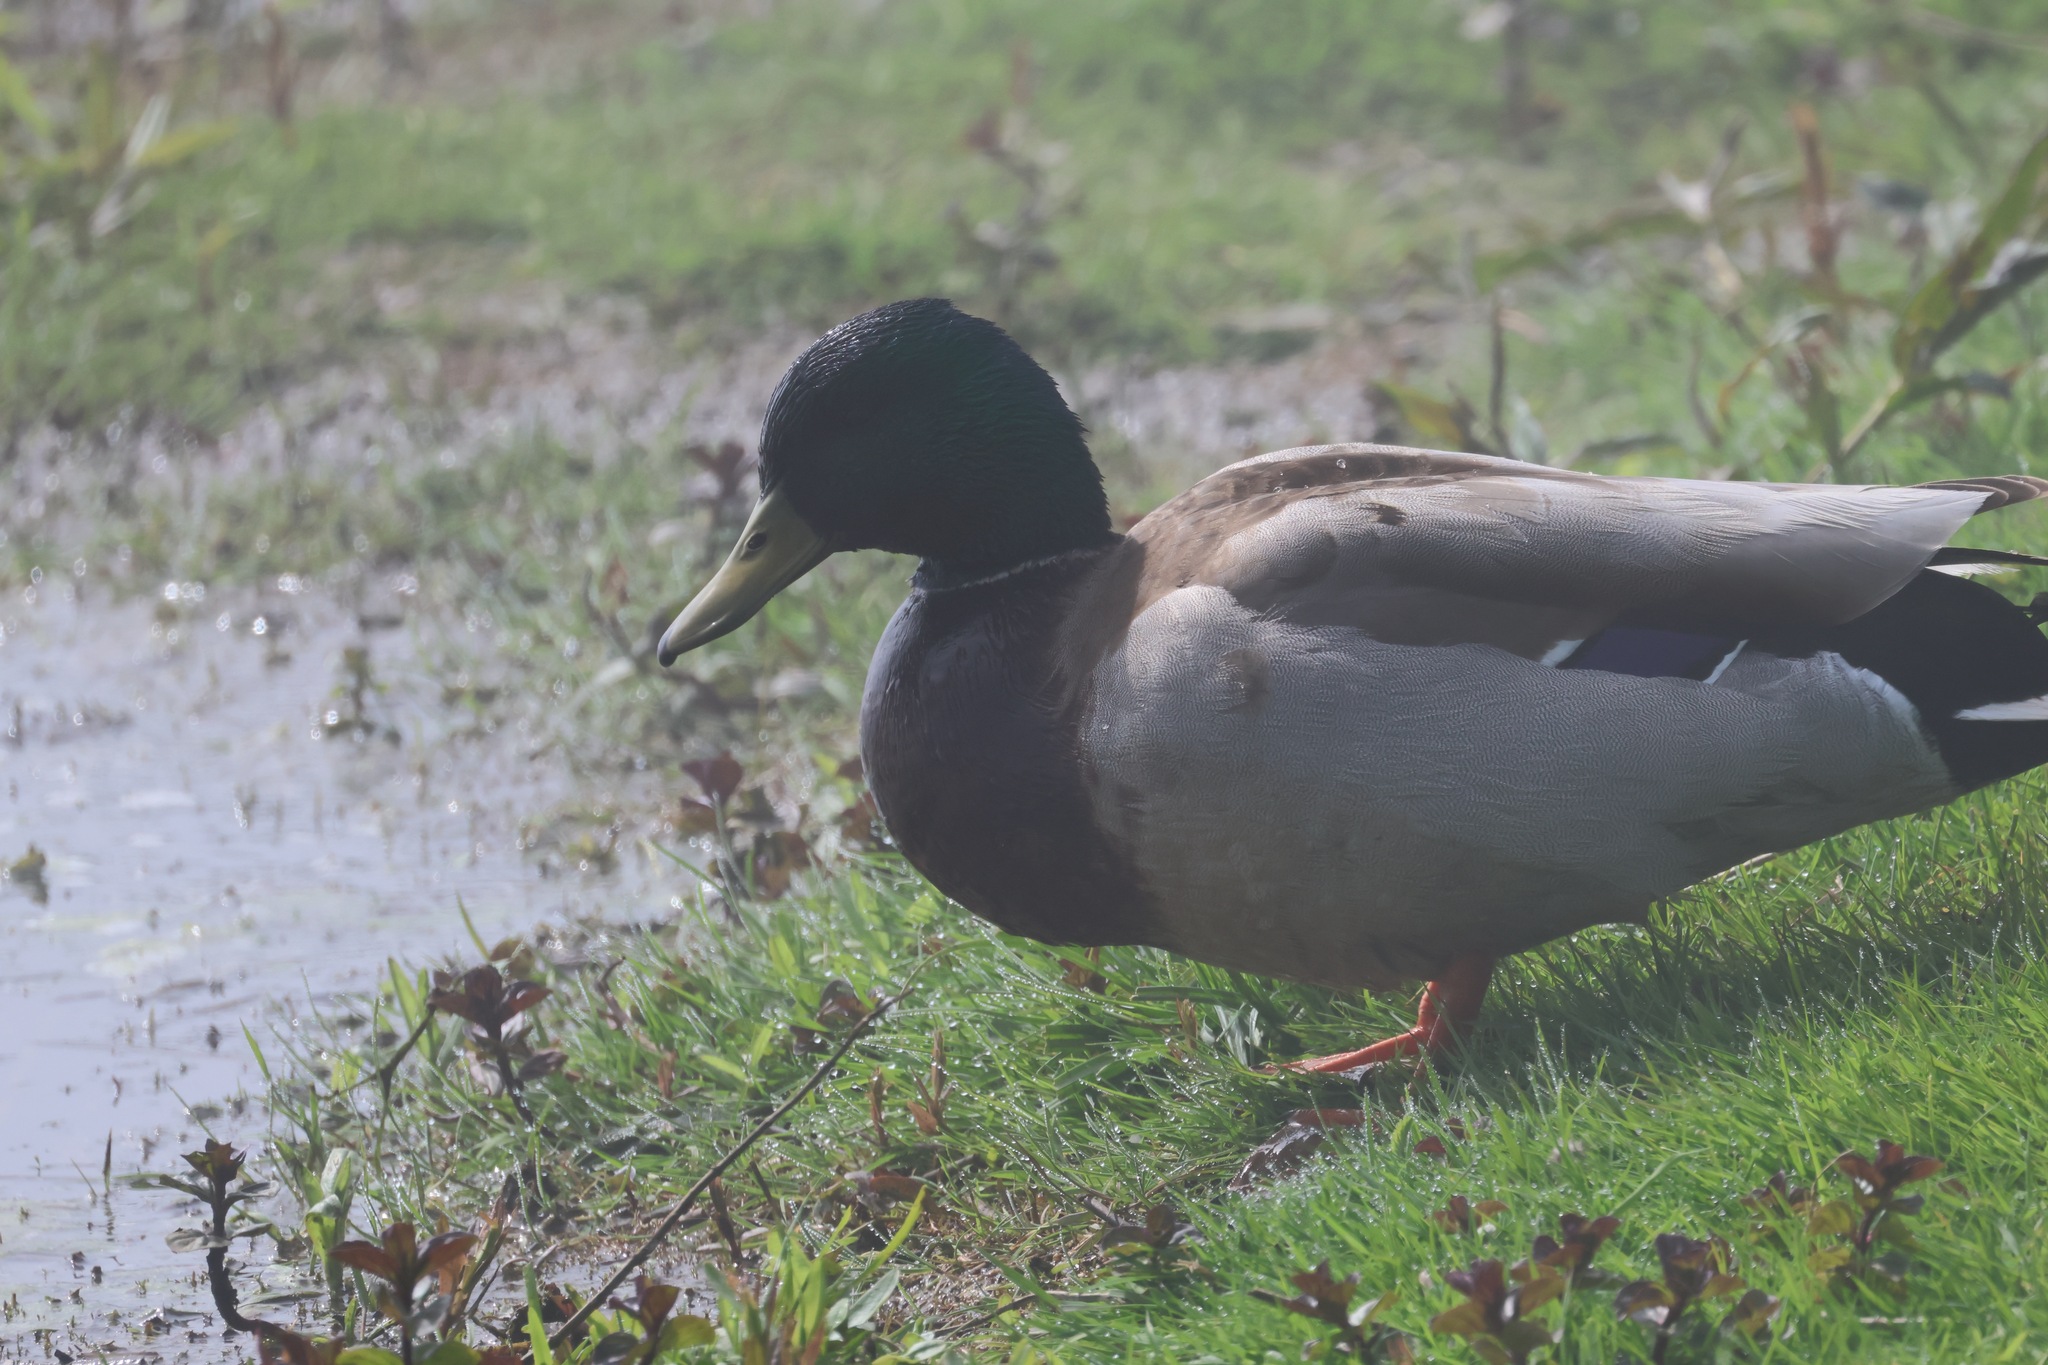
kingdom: Animalia
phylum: Chordata
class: Aves
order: Anseriformes
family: Anatidae
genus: Anas
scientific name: Anas platyrhynchos
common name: Mallard
